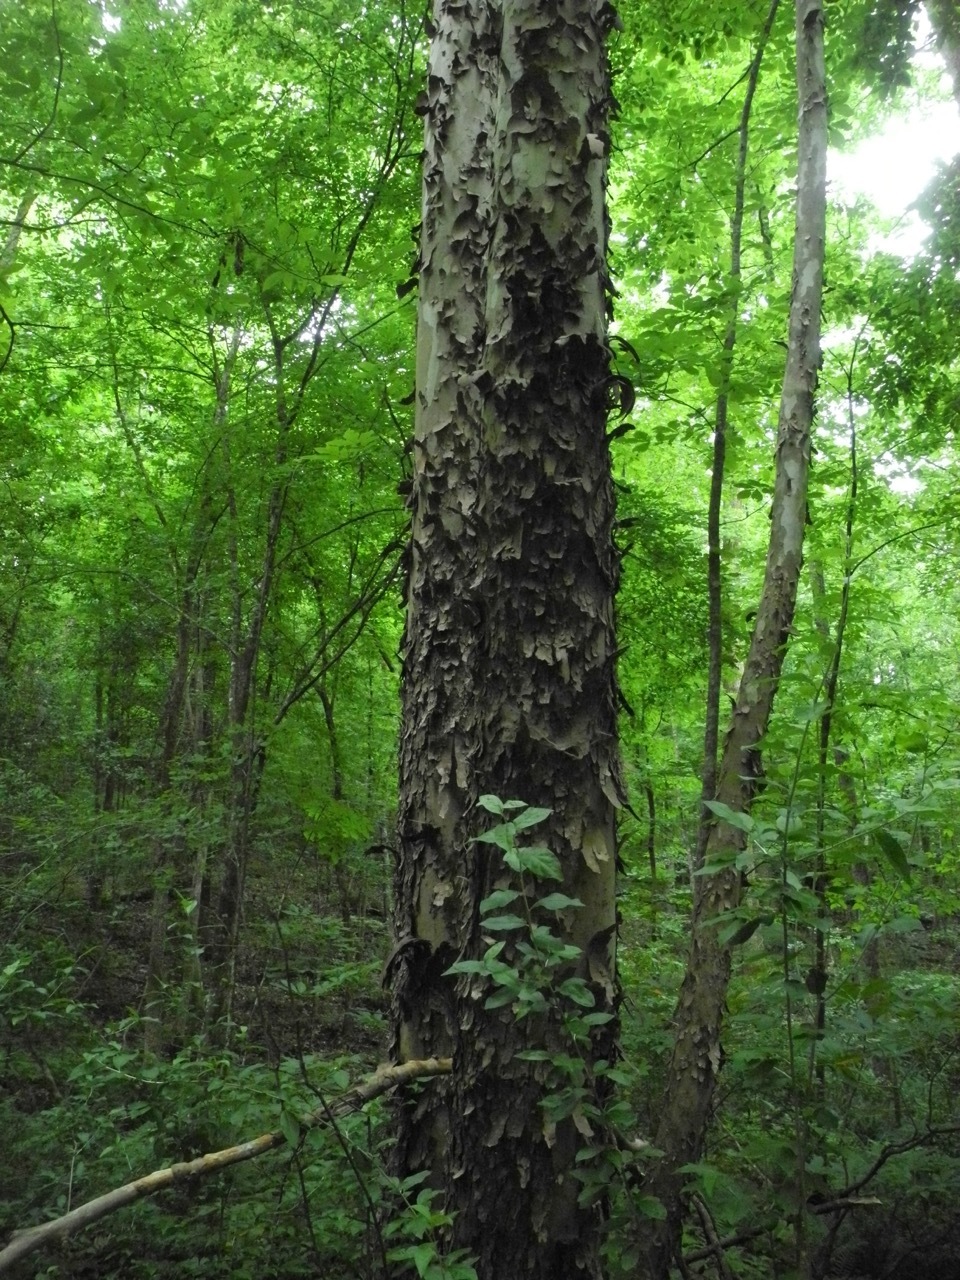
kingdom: Plantae
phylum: Tracheophyta
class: Magnoliopsida
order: Proteales
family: Platanaceae
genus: Platanus
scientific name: Platanus occidentalis
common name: American sycamore
